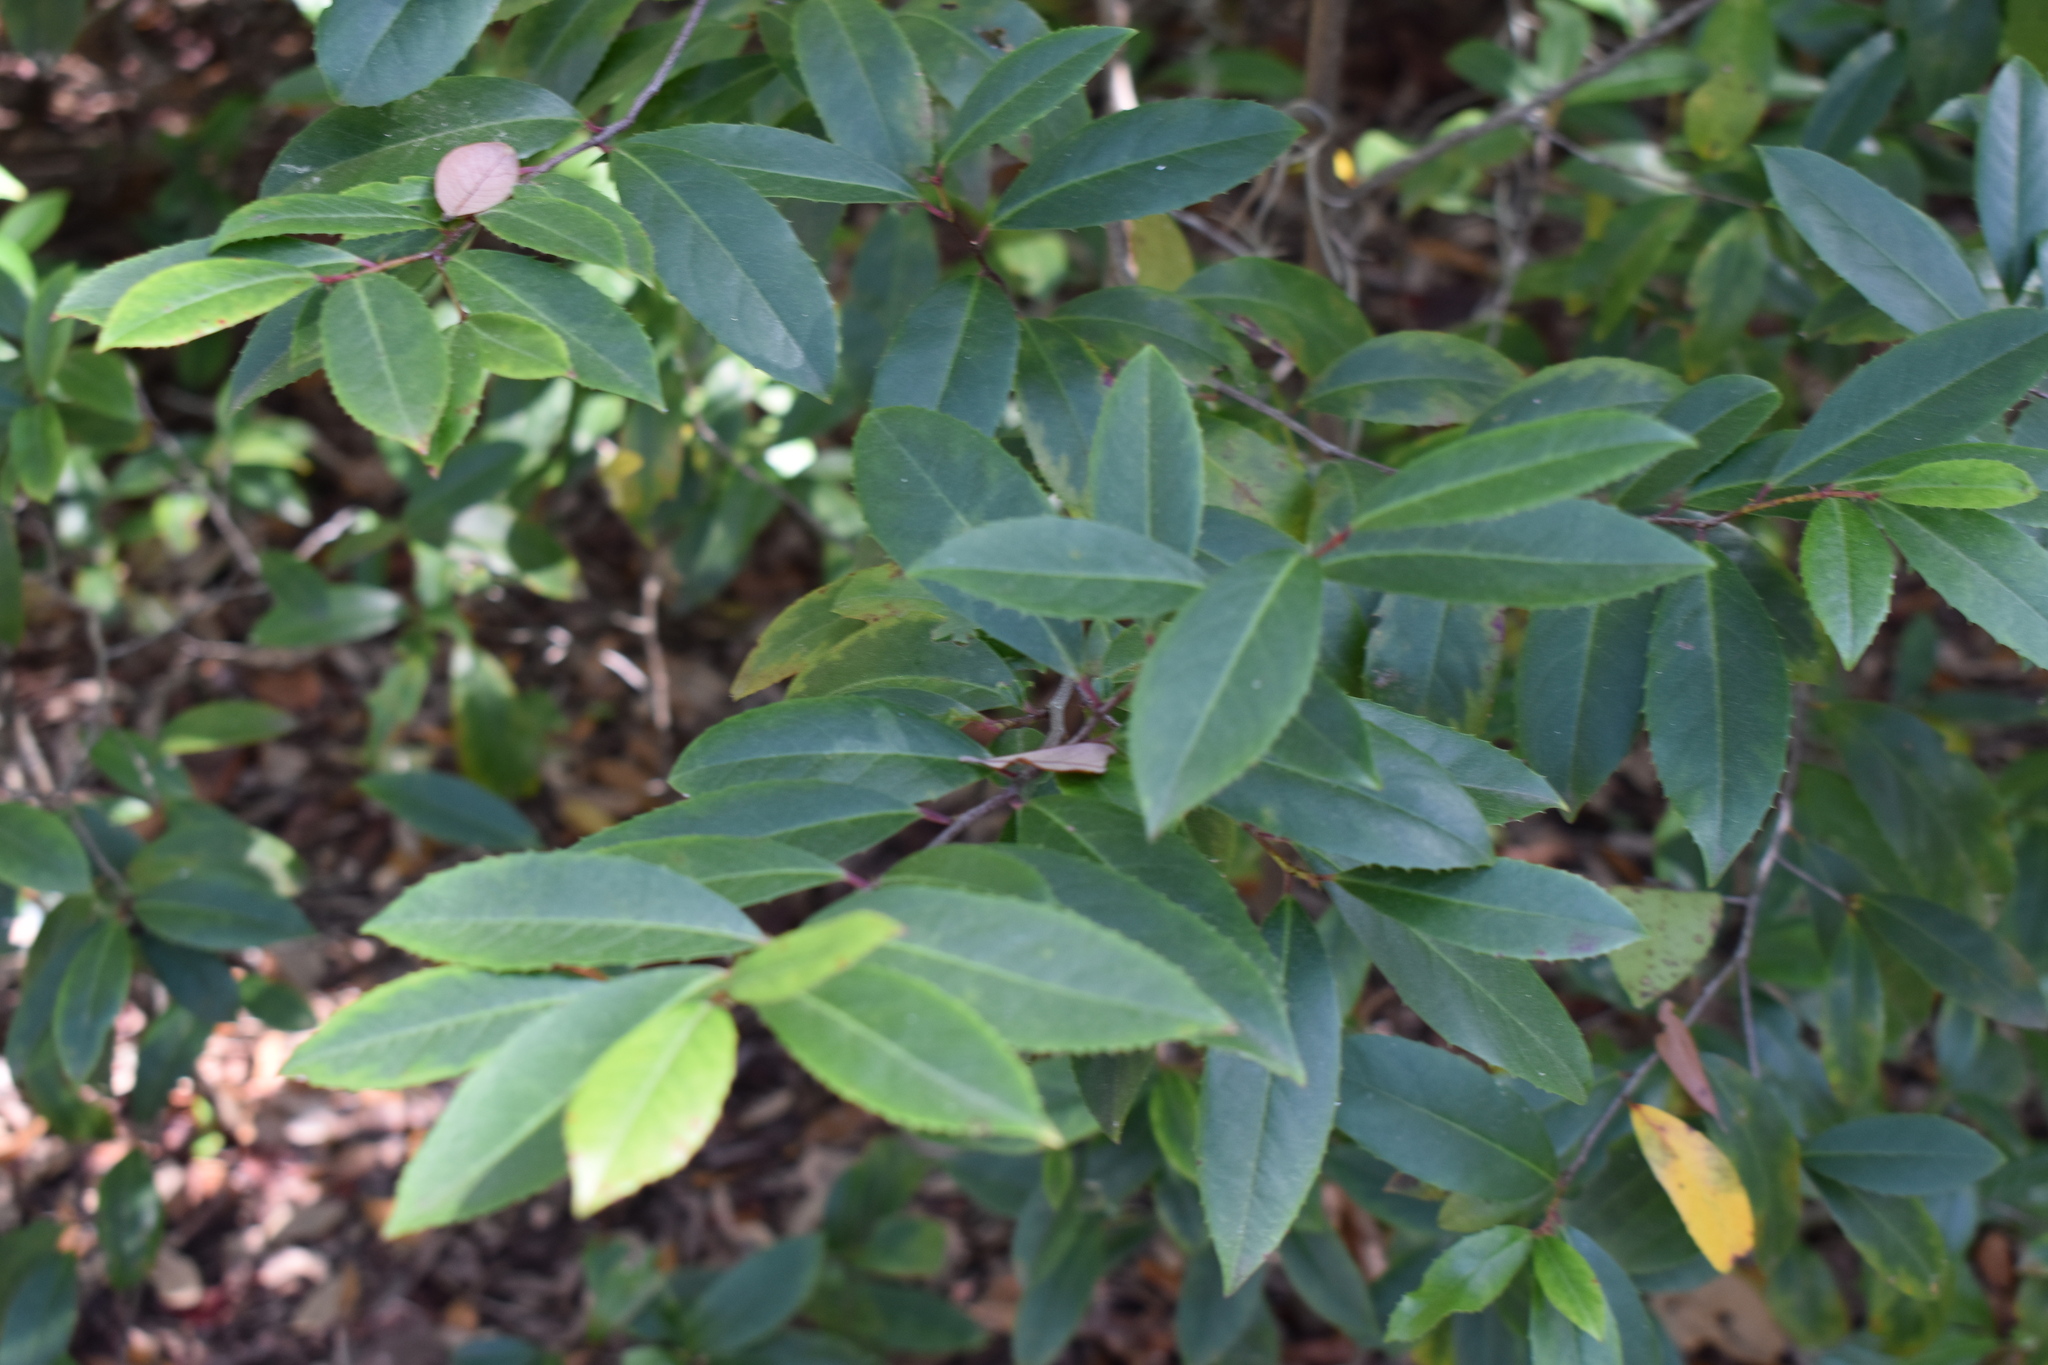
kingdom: Plantae
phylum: Tracheophyta
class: Magnoliopsida
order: Rosales
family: Rosaceae
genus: Prunus
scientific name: Prunus caroliniana
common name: Carolina laurel cherry
